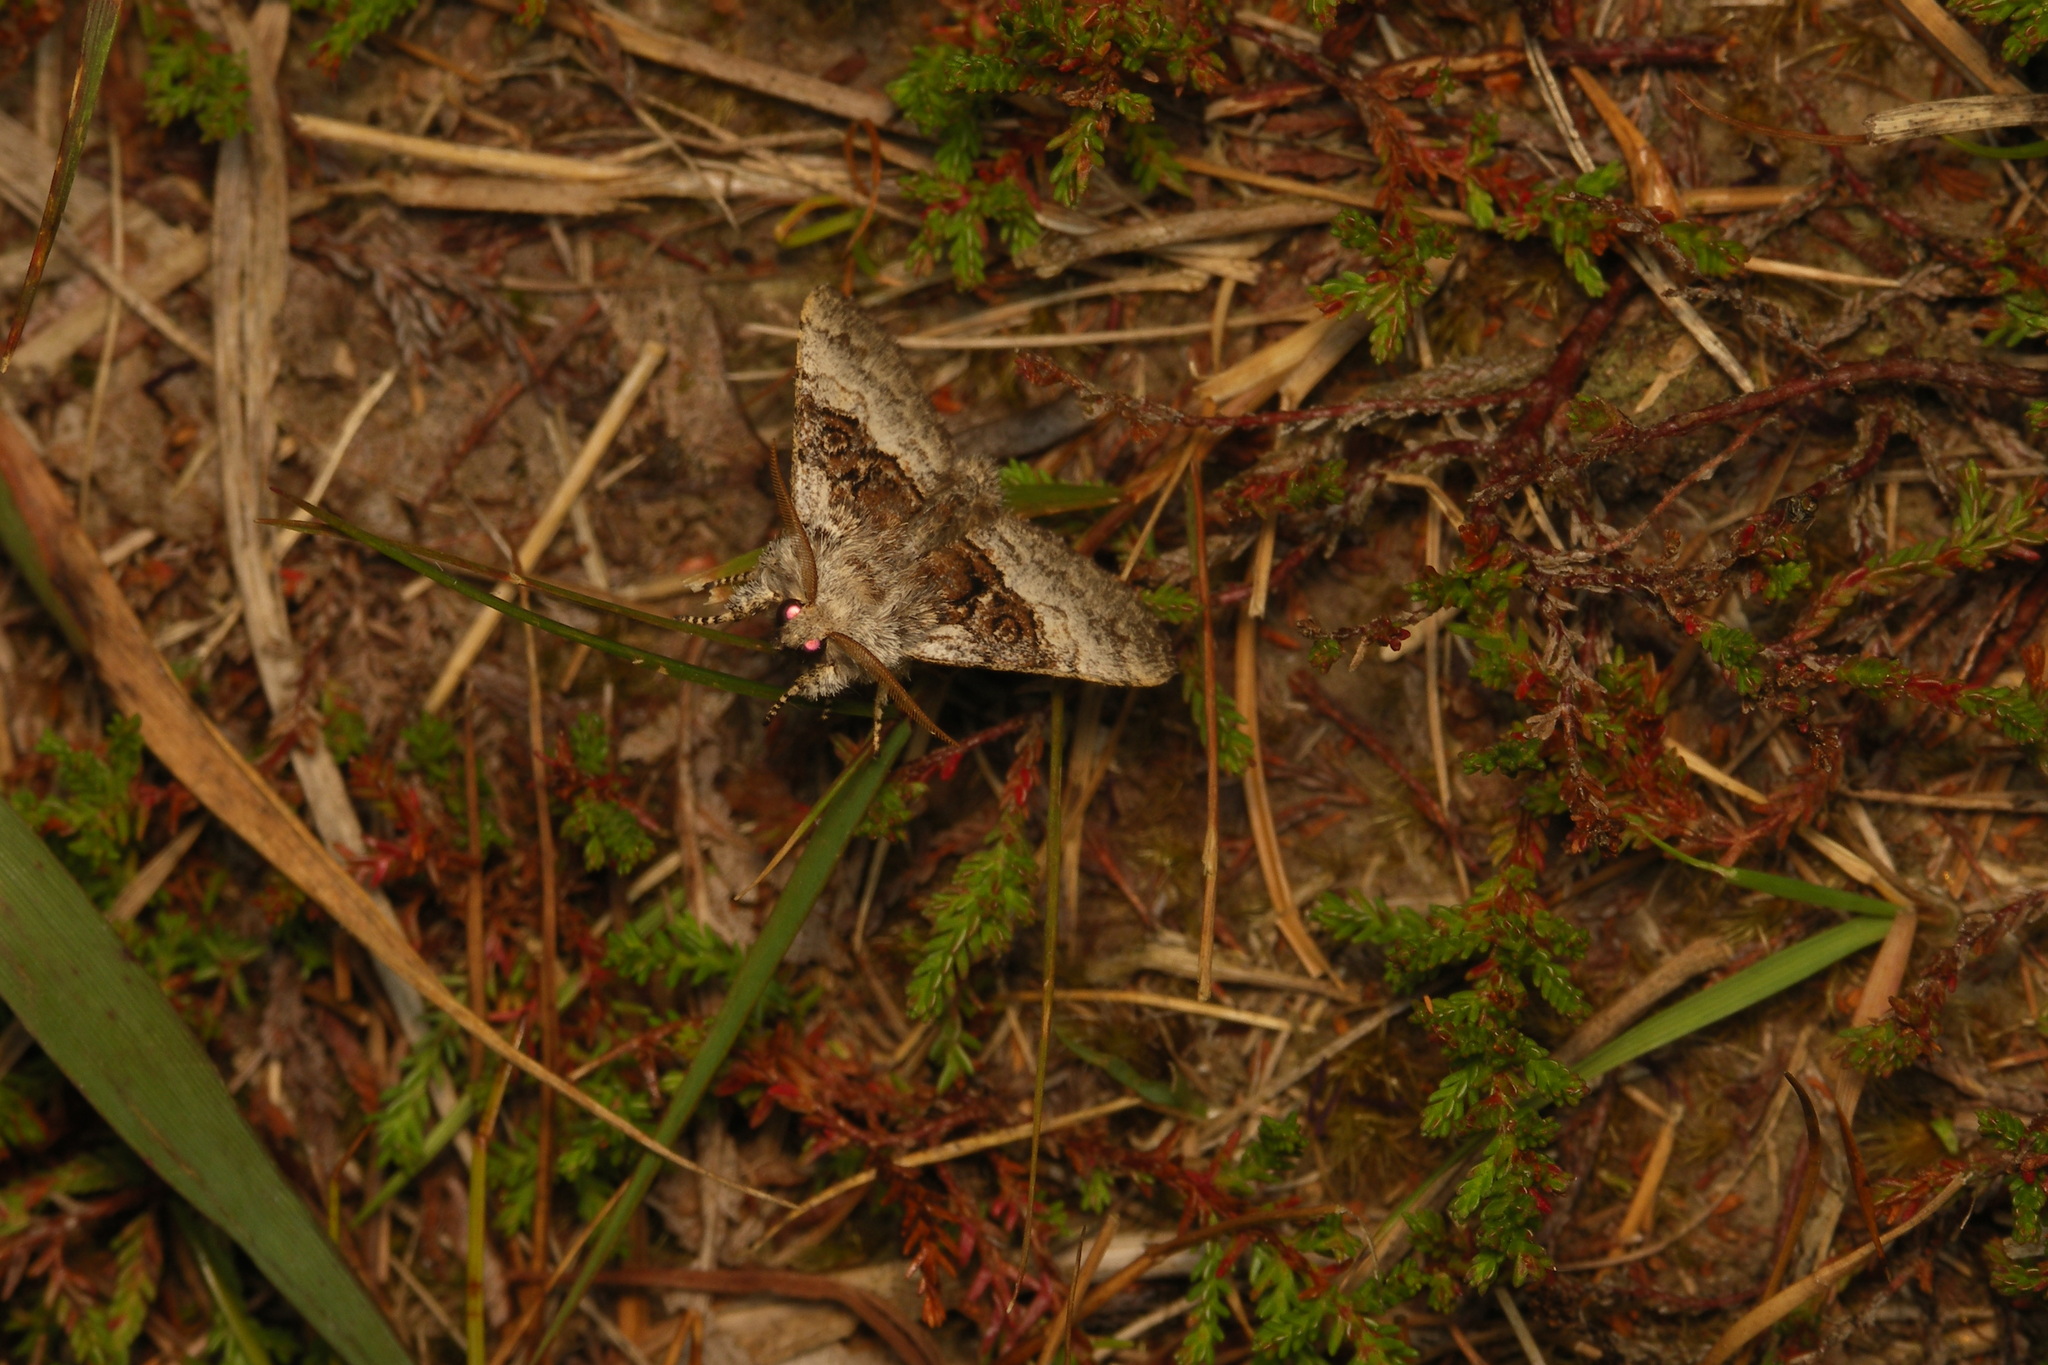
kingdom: Animalia
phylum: Arthropoda
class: Insecta
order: Lepidoptera
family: Noctuidae
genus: Colocasia
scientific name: Colocasia coryli
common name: Nut-tree tussock
